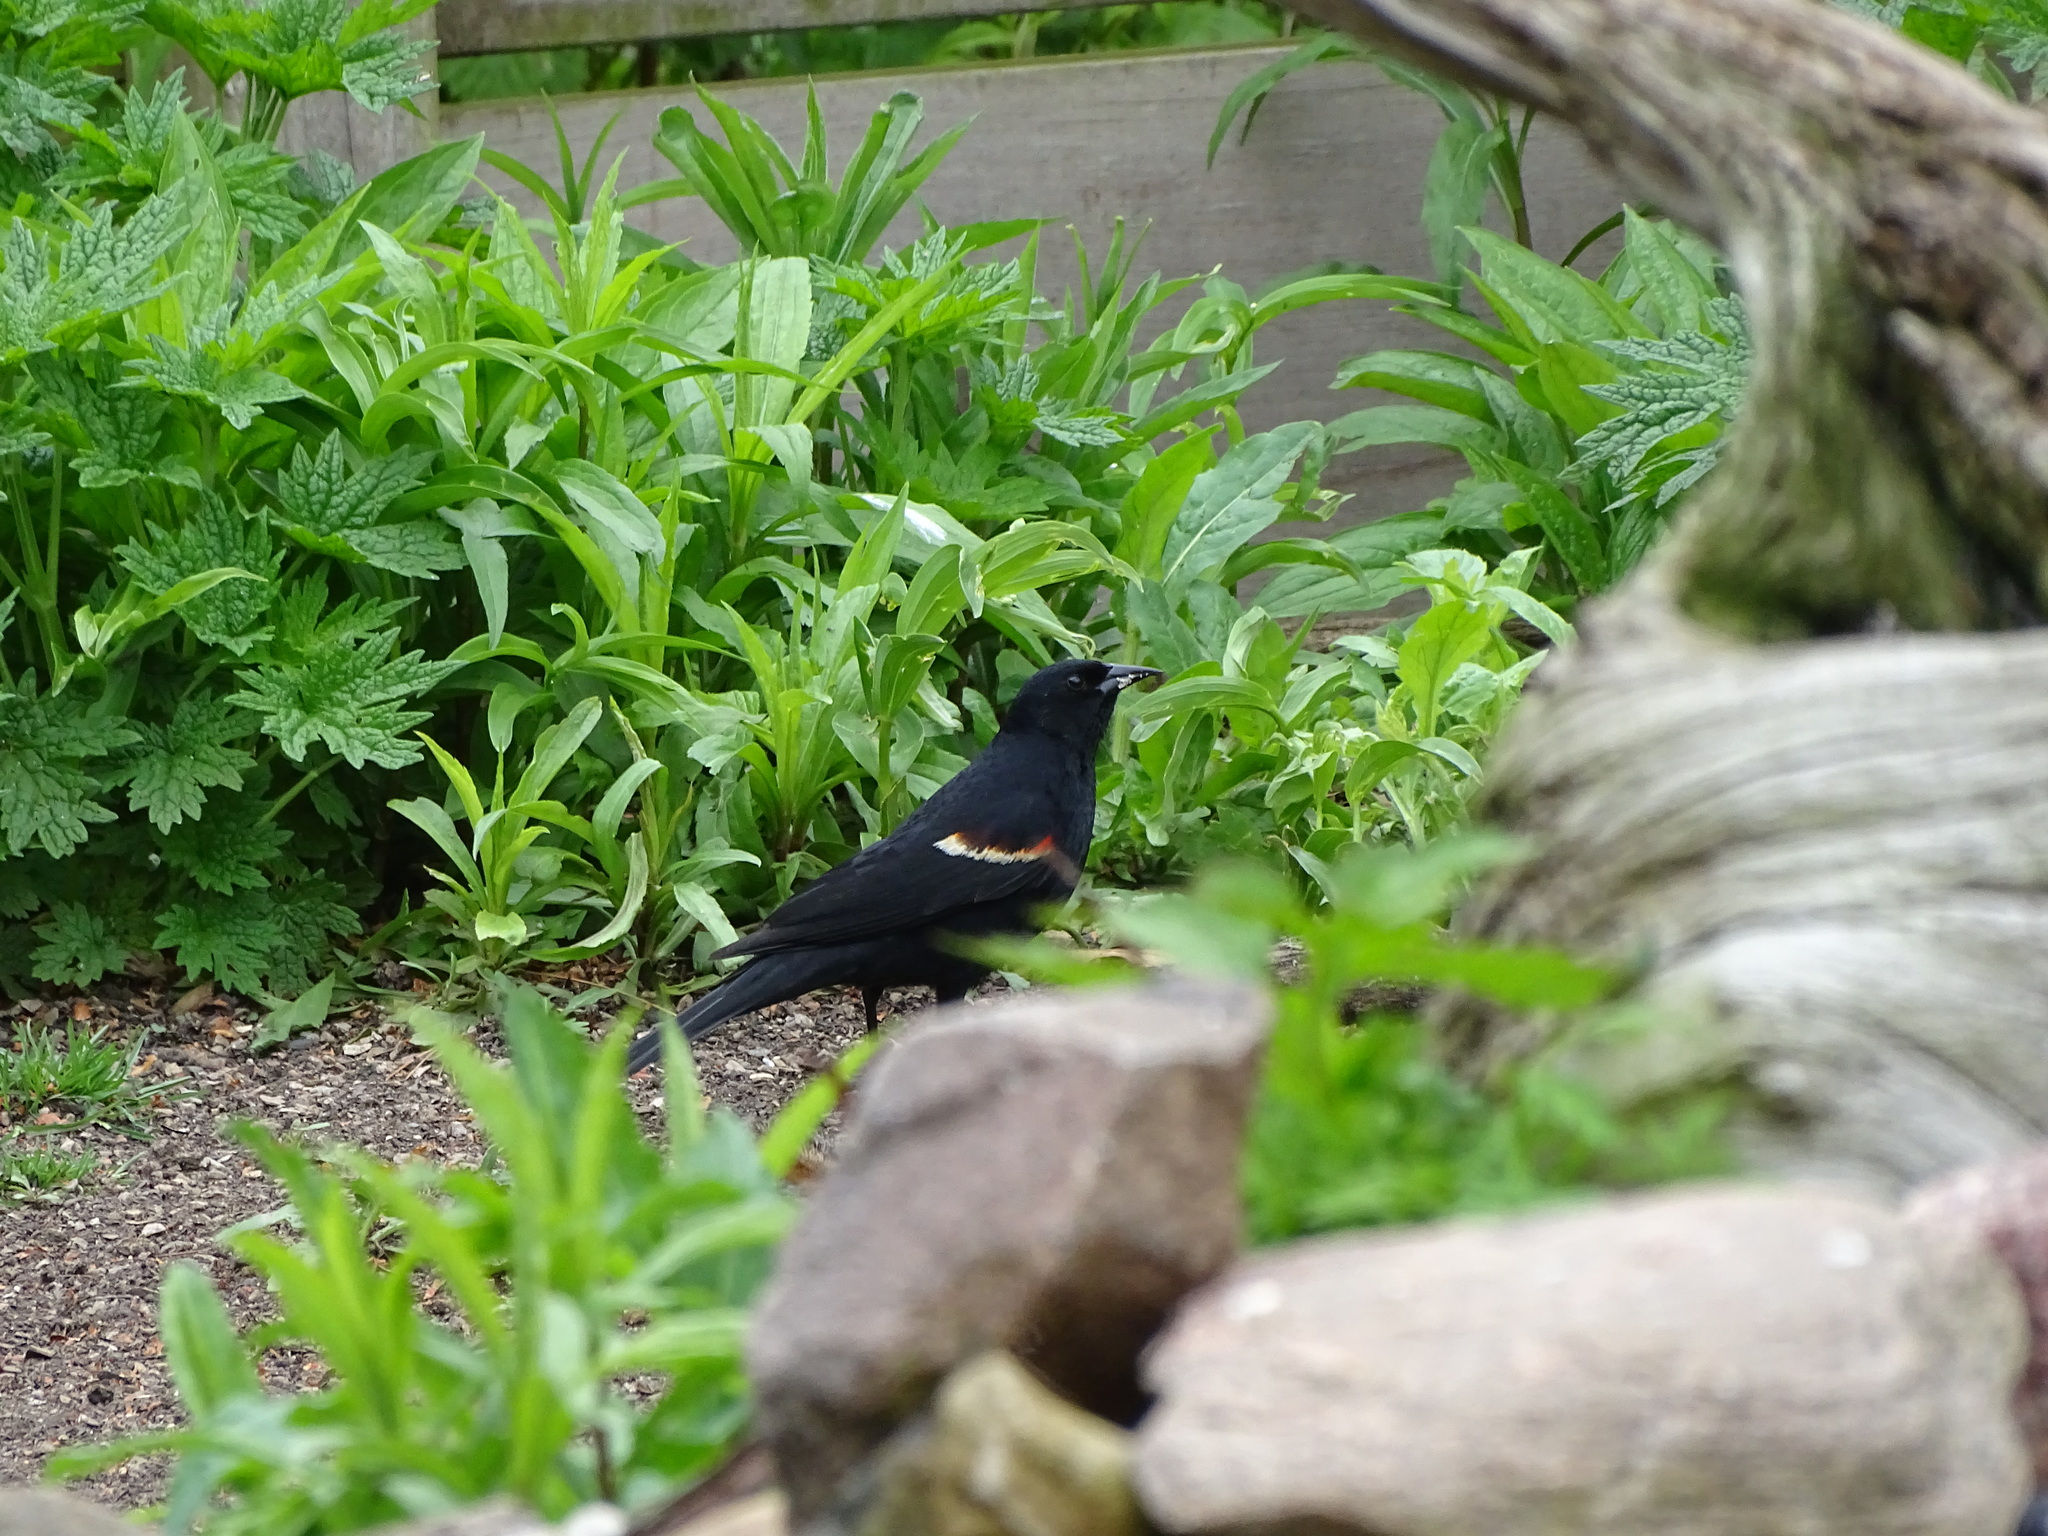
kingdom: Animalia
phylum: Chordata
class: Aves
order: Passeriformes
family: Icteridae
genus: Agelaius
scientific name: Agelaius phoeniceus
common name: Red-winged blackbird
